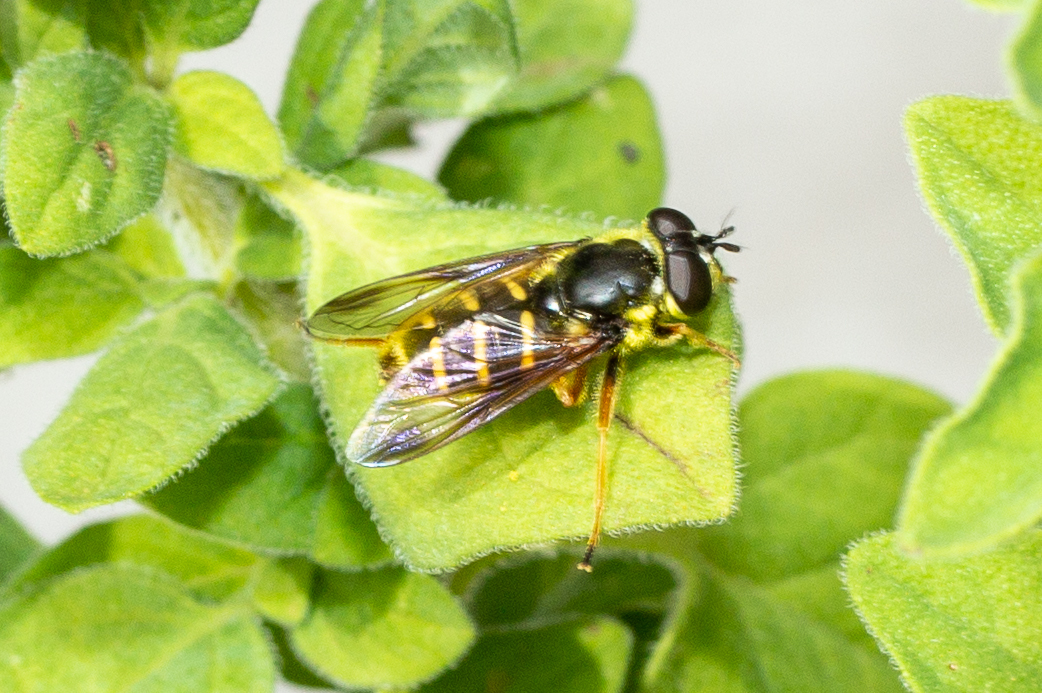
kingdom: Animalia
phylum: Arthropoda
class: Insecta
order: Diptera
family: Syrphidae
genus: Sericomyia
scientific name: Sericomyia chrysotoxoides
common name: Oblique-banded pond fly
